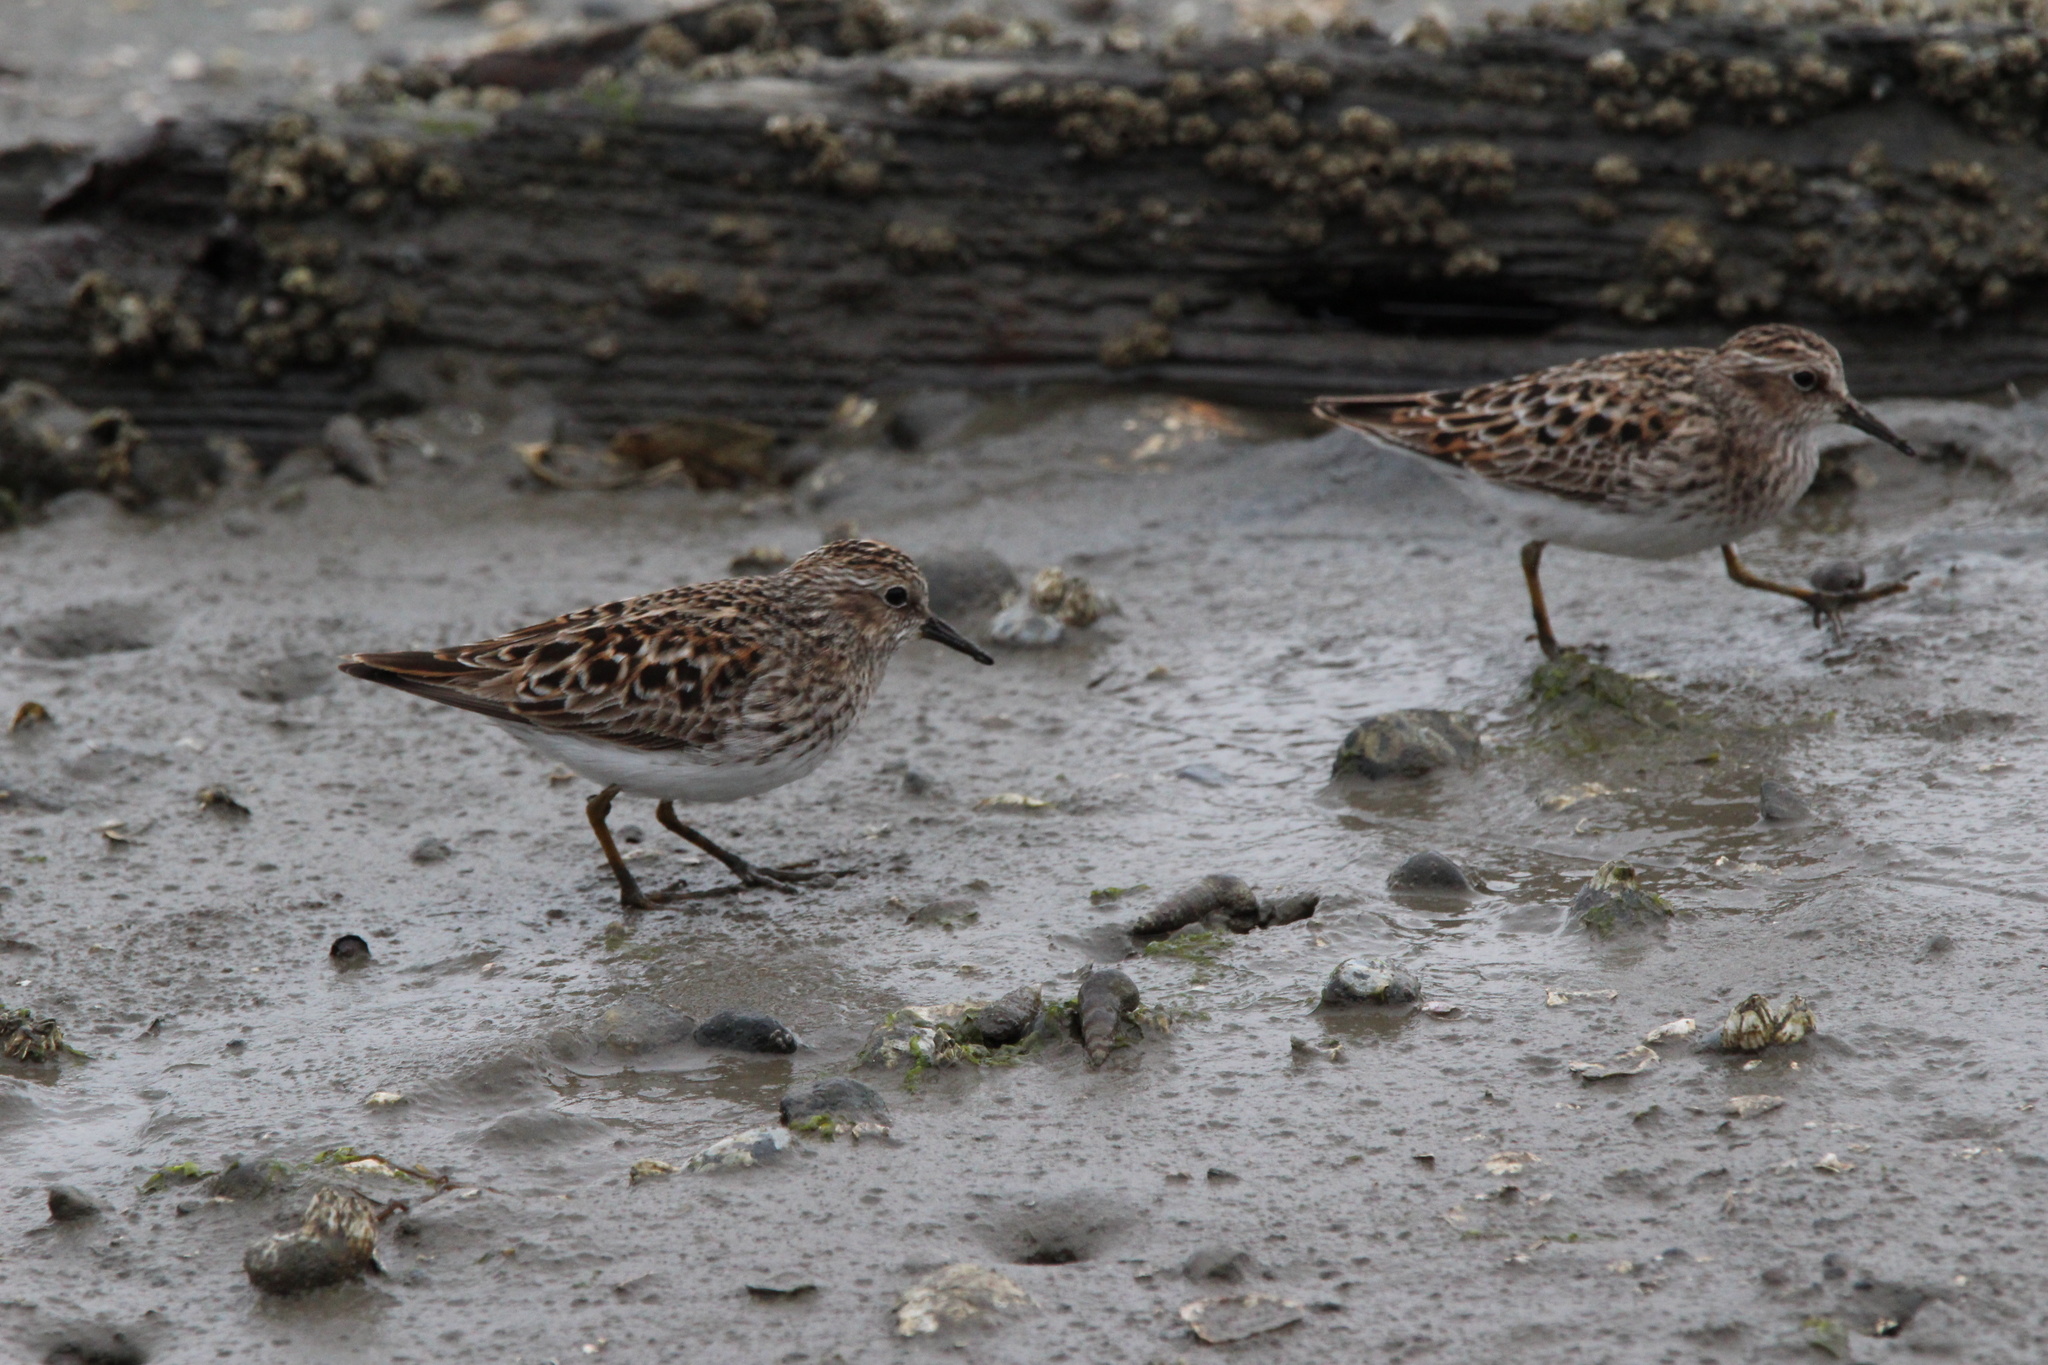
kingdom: Animalia
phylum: Chordata
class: Aves
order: Charadriiformes
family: Scolopacidae
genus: Calidris
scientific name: Calidris minutilla
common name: Least sandpiper
